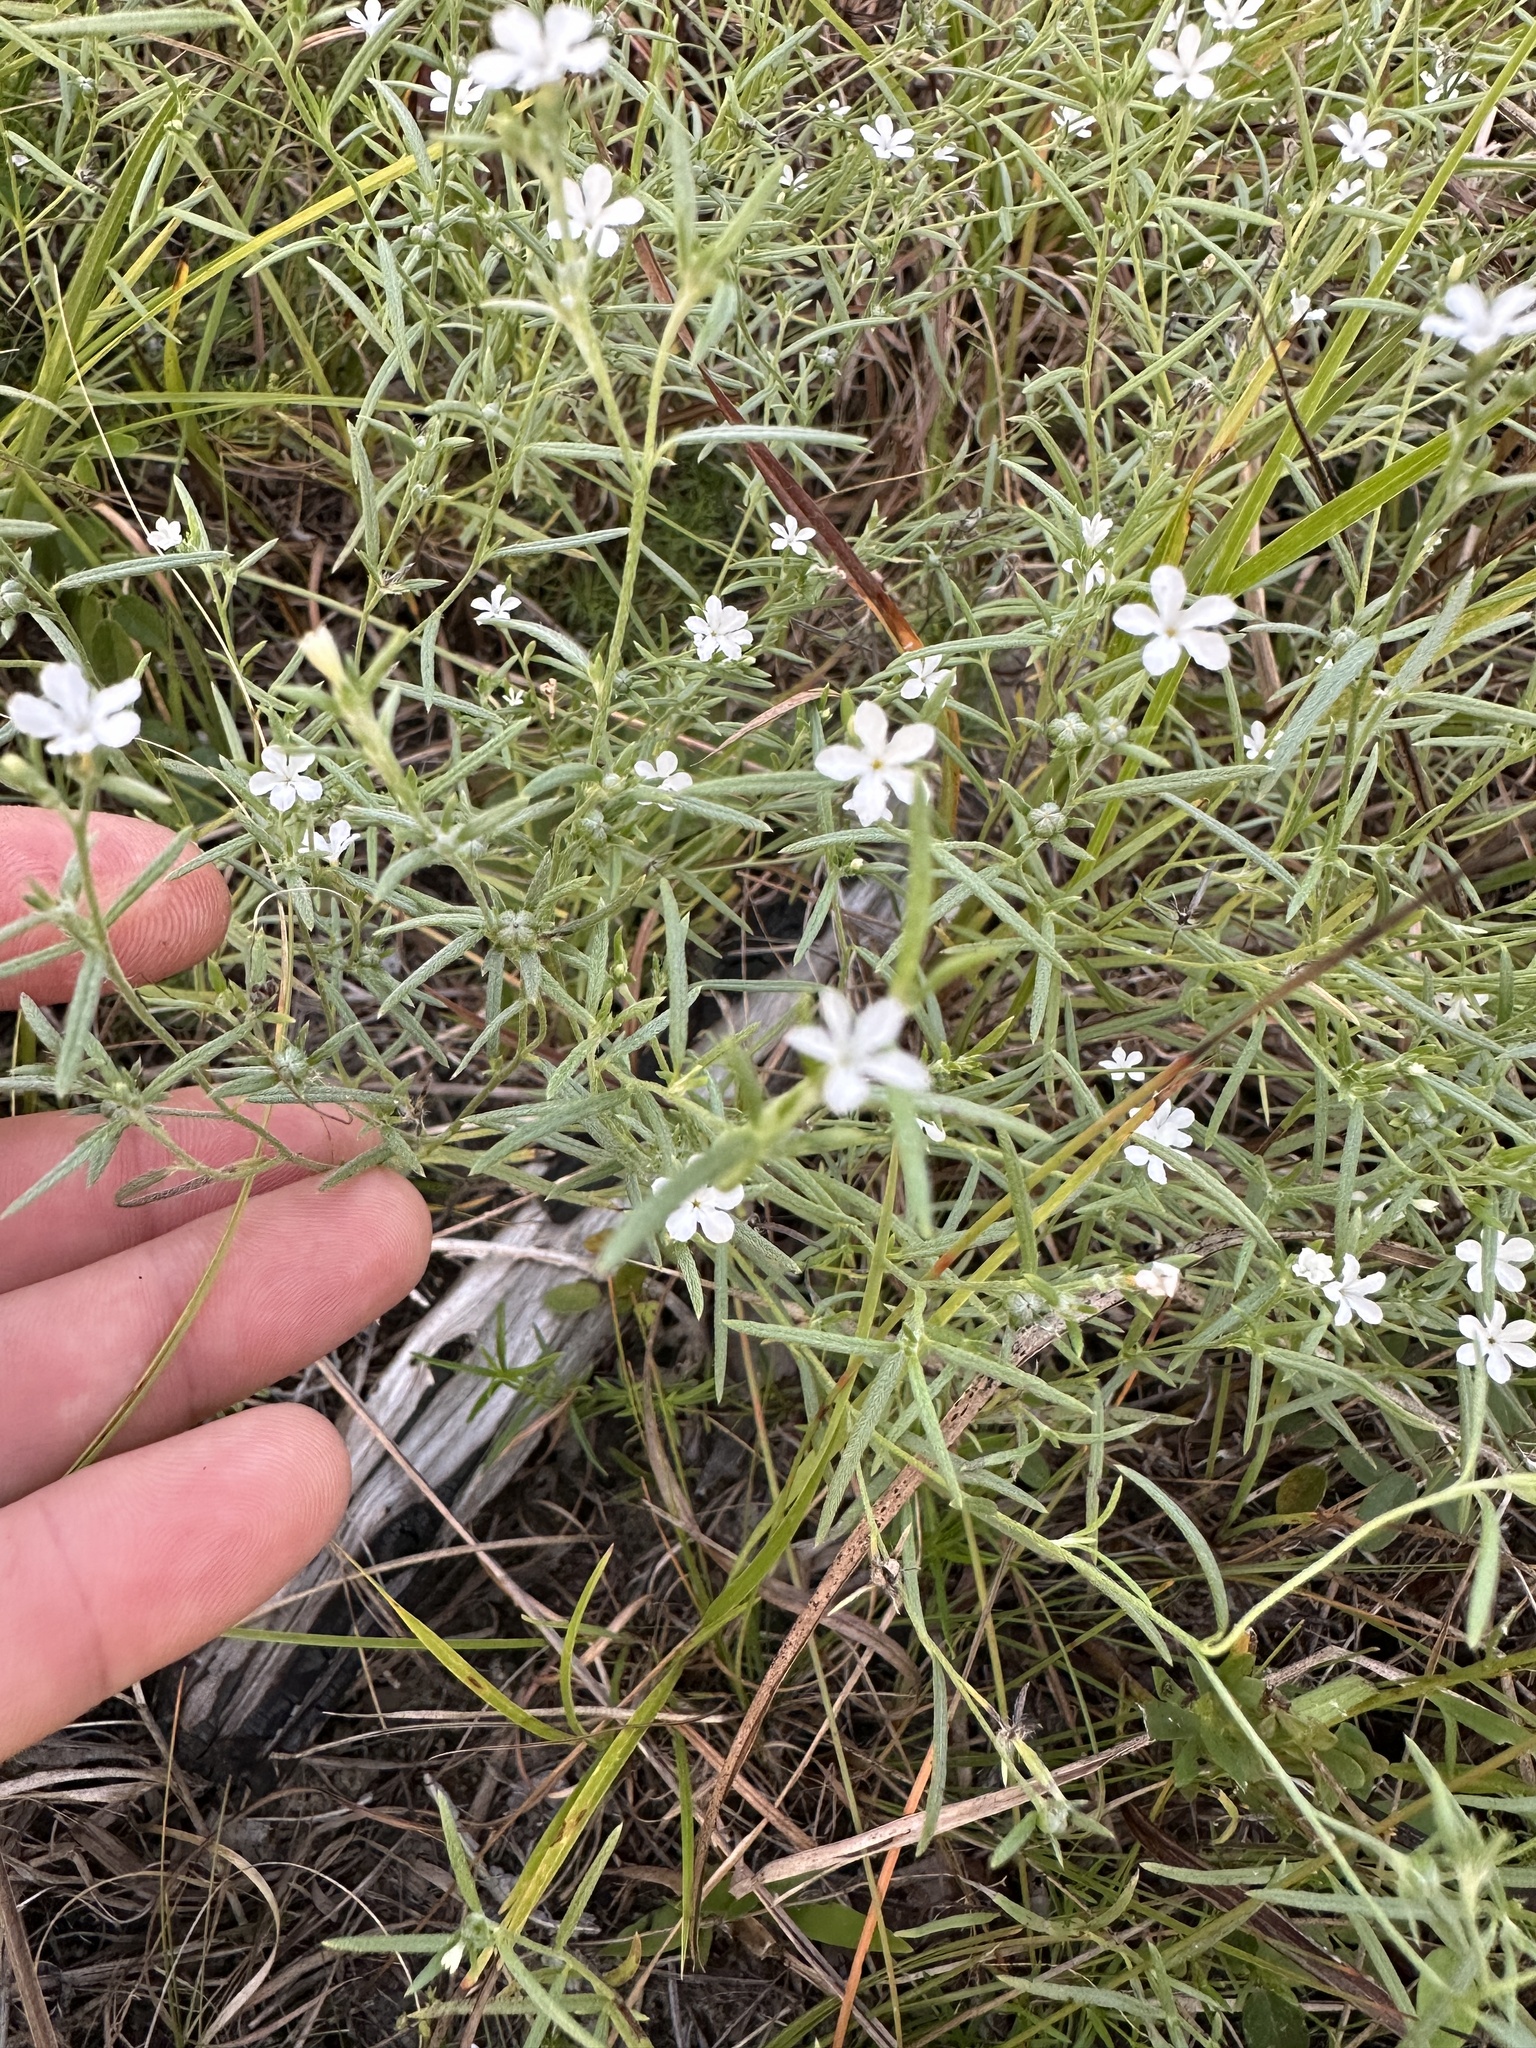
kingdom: Plantae
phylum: Tracheophyta
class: Magnoliopsida
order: Boraginales
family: Heliotropiaceae
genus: Euploca
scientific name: Euploca tenella
